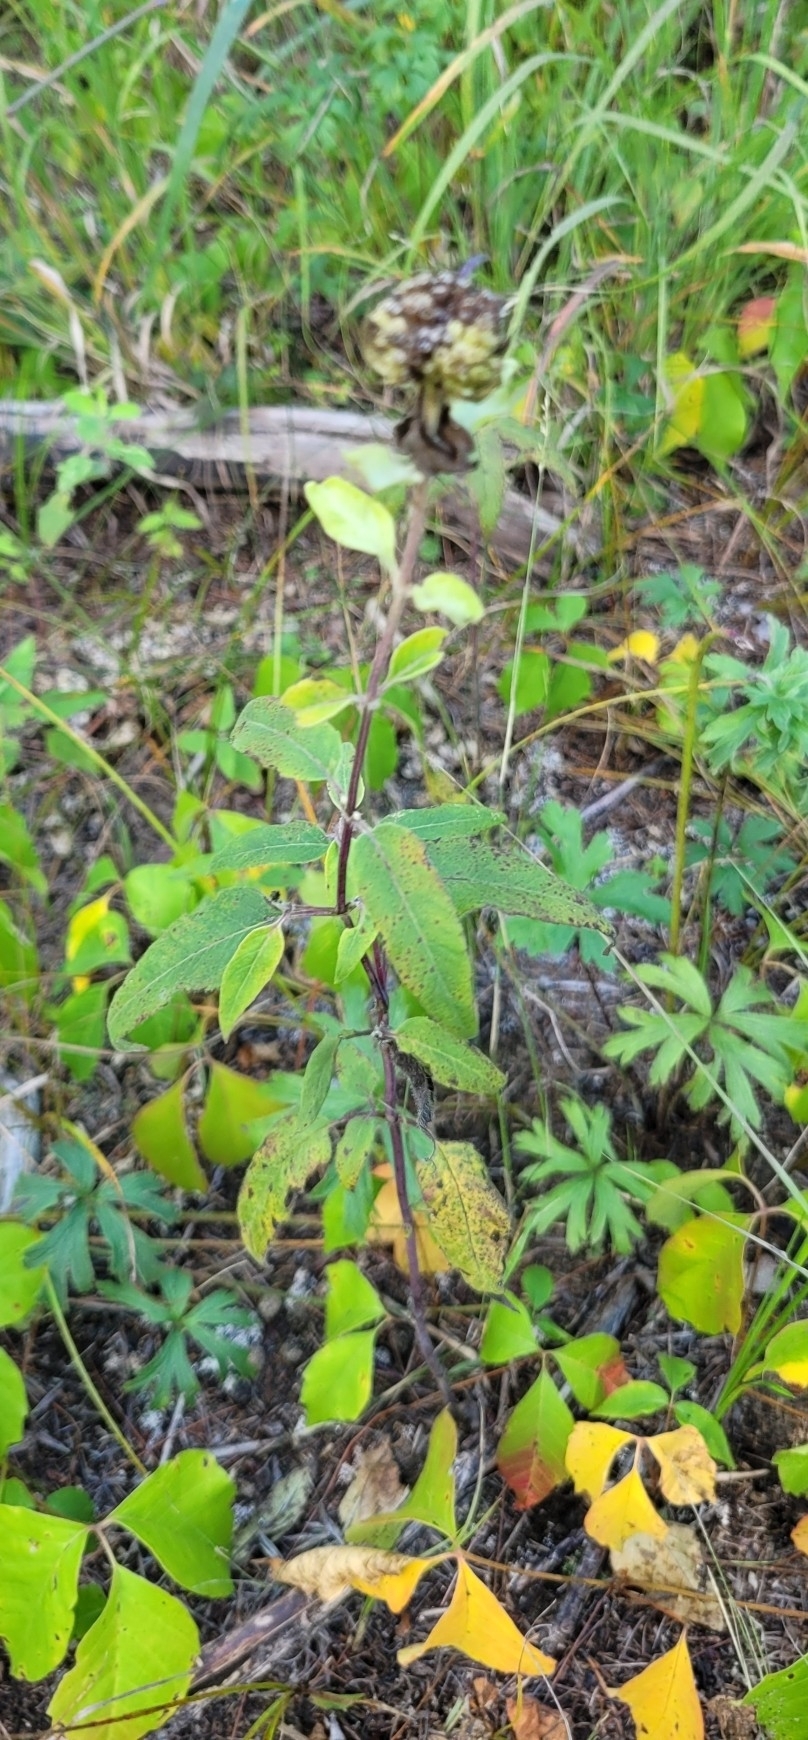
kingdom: Plantae
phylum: Tracheophyta
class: Magnoliopsida
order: Lamiales
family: Lamiaceae
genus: Monarda
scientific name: Monarda fistulosa
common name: Purple beebalm
